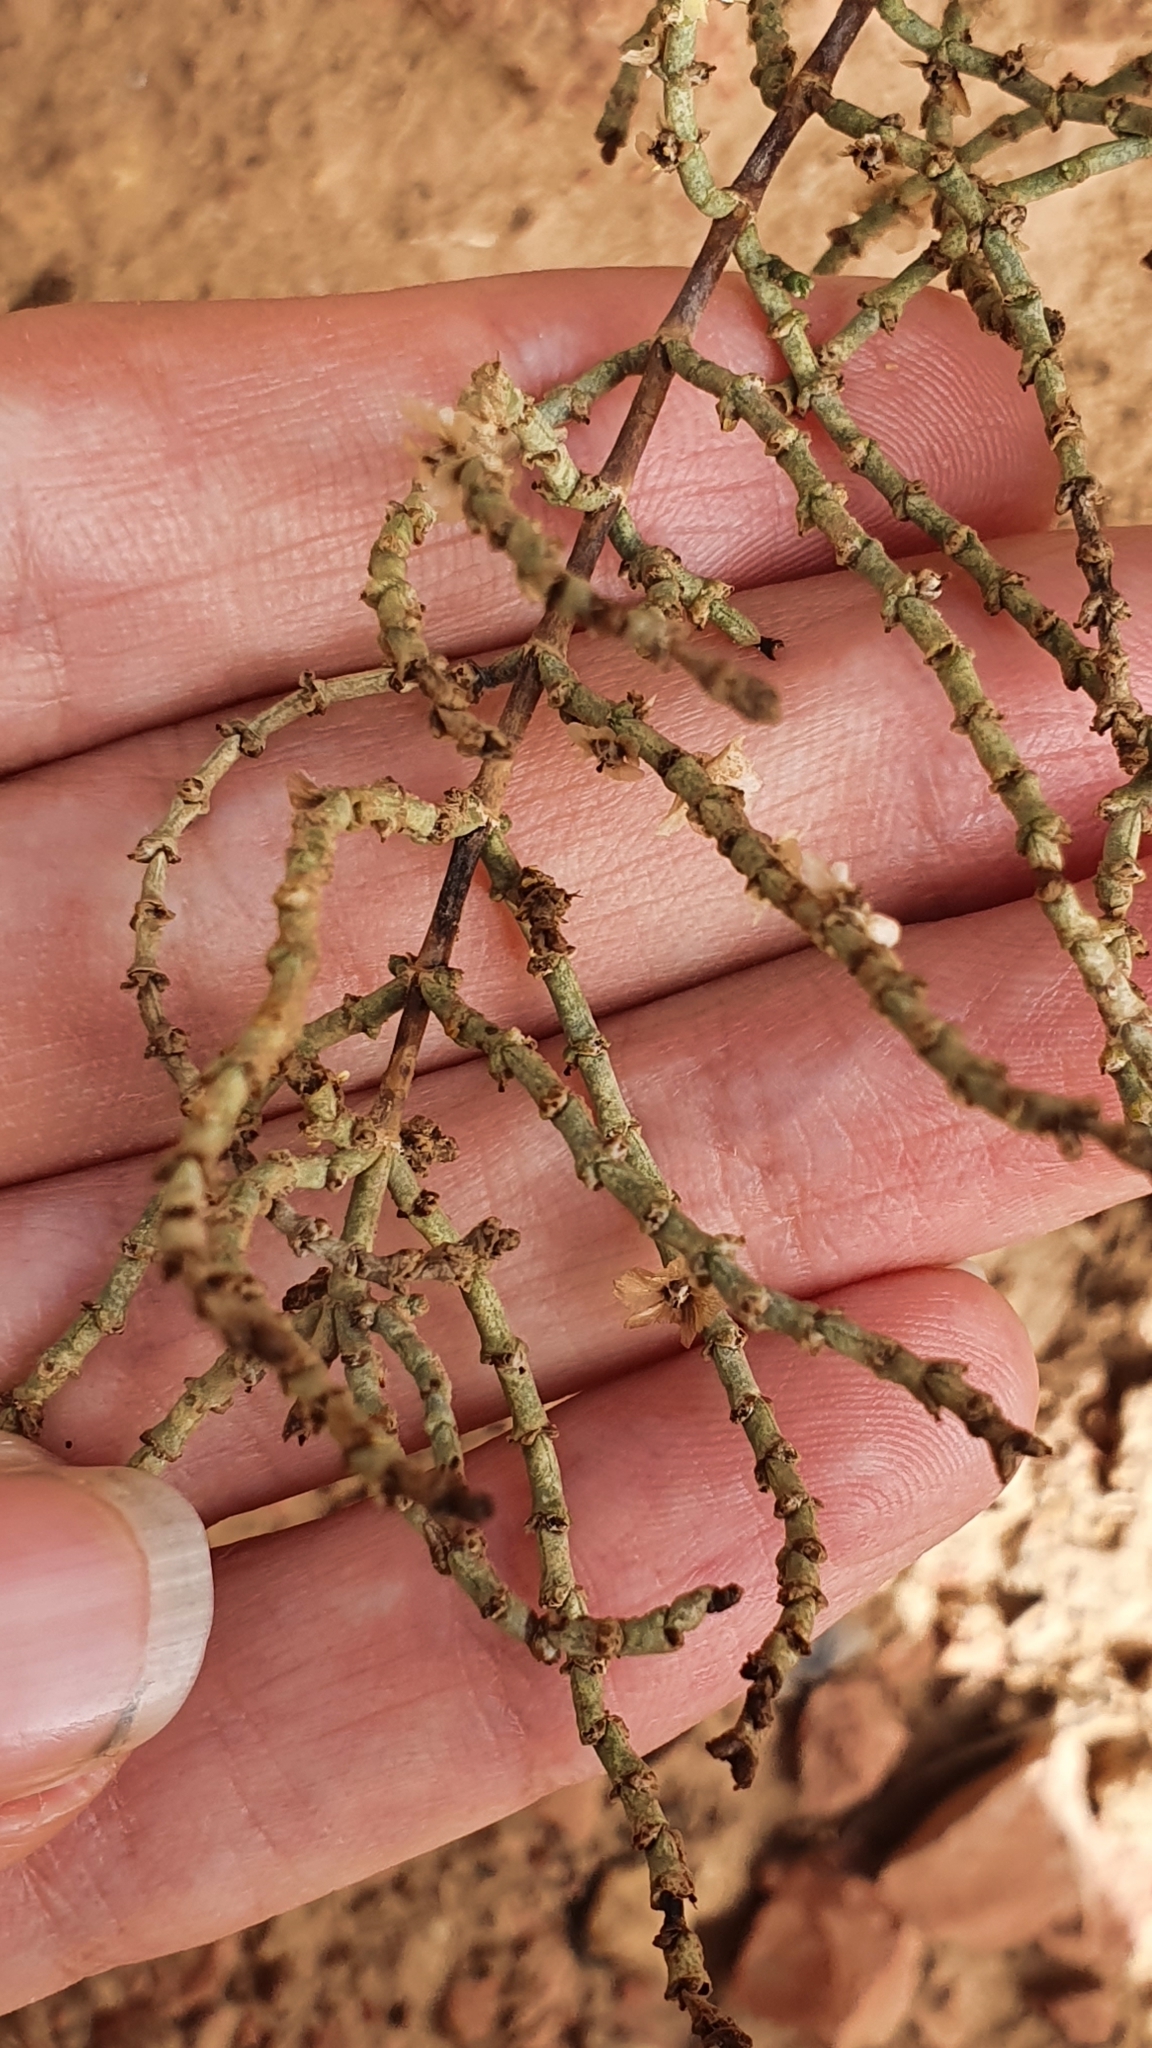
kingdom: Plantae
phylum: Tracheophyta
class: Magnoliopsida
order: Caryophyllales
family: Amaranthaceae
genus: Haloxylon
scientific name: Haloxylon
